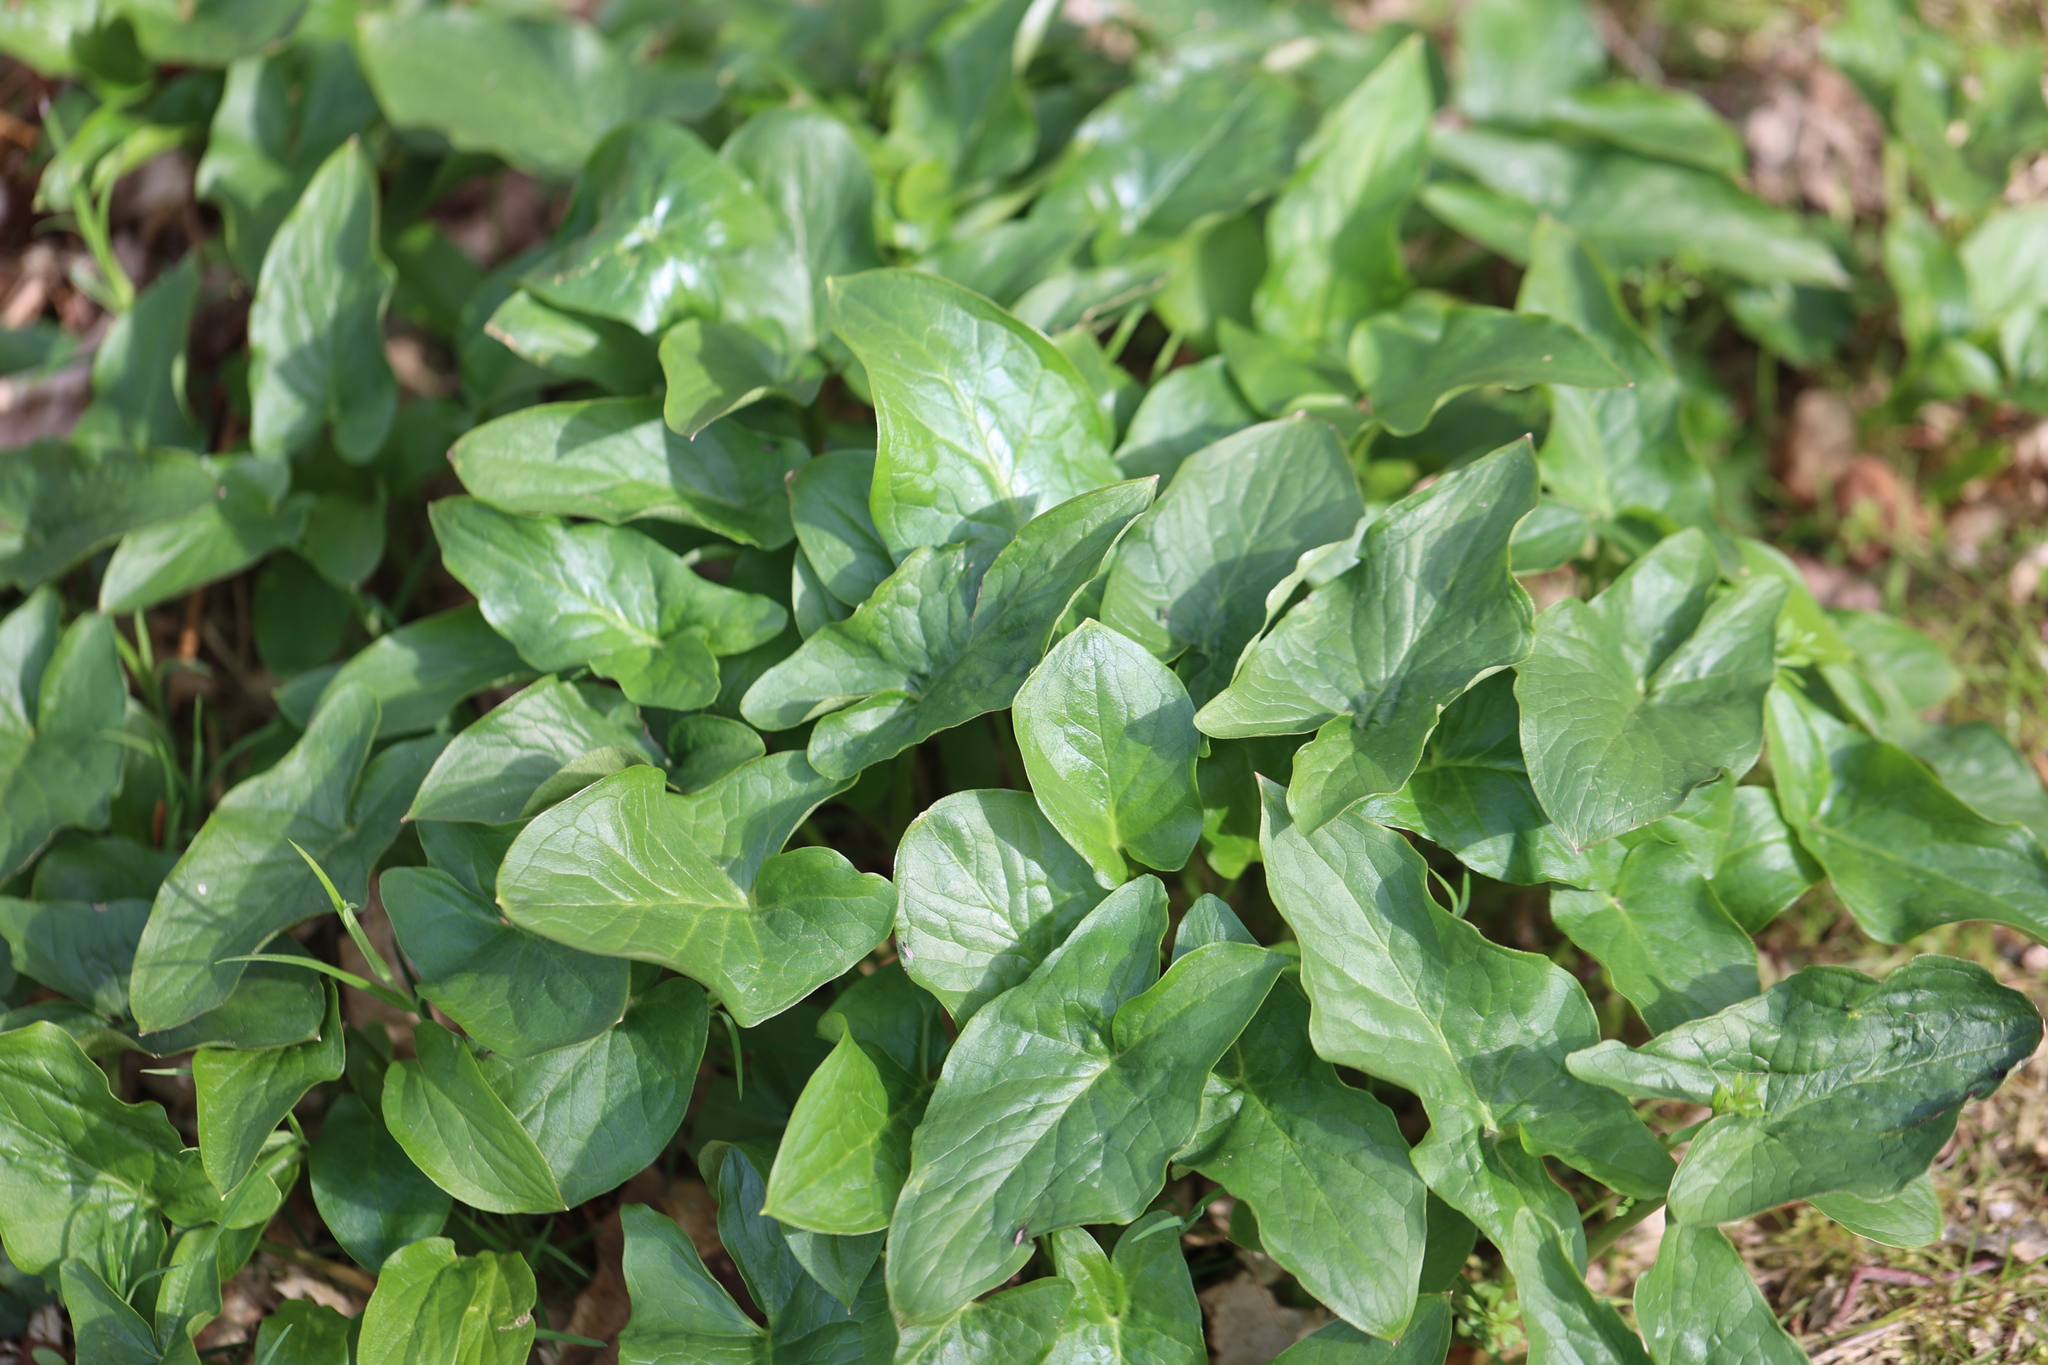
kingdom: Plantae
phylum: Tracheophyta
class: Liliopsida
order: Alismatales
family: Araceae
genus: Arum
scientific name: Arum maculatum
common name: Lords-and-ladies
